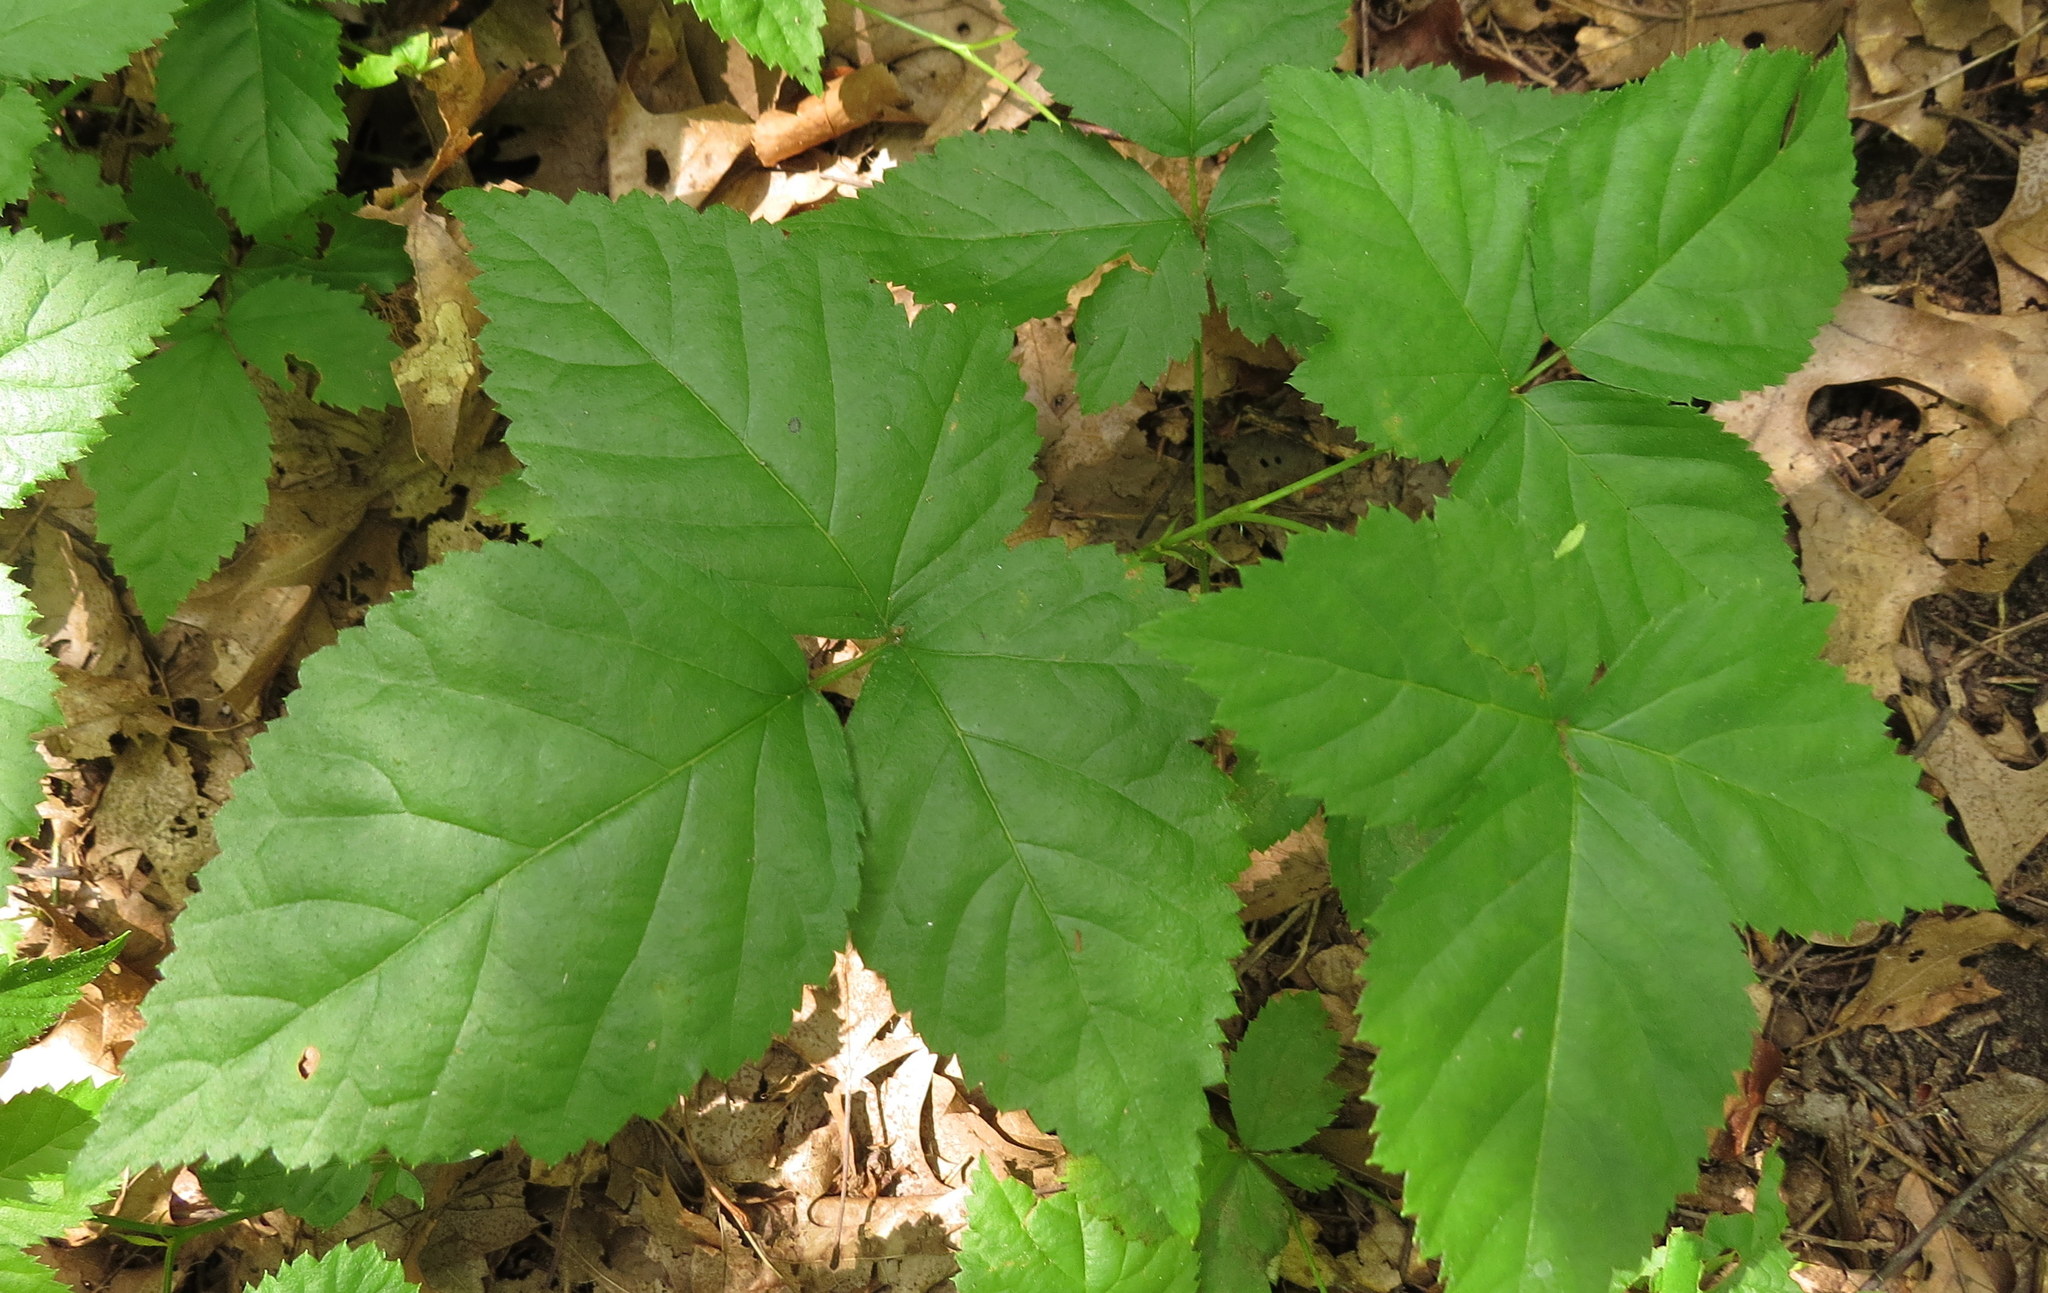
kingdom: Plantae
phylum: Tracheophyta
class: Magnoliopsida
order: Rosales
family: Rosaceae
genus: Rubus
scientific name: Rubus flagellaris
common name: American dewberry
